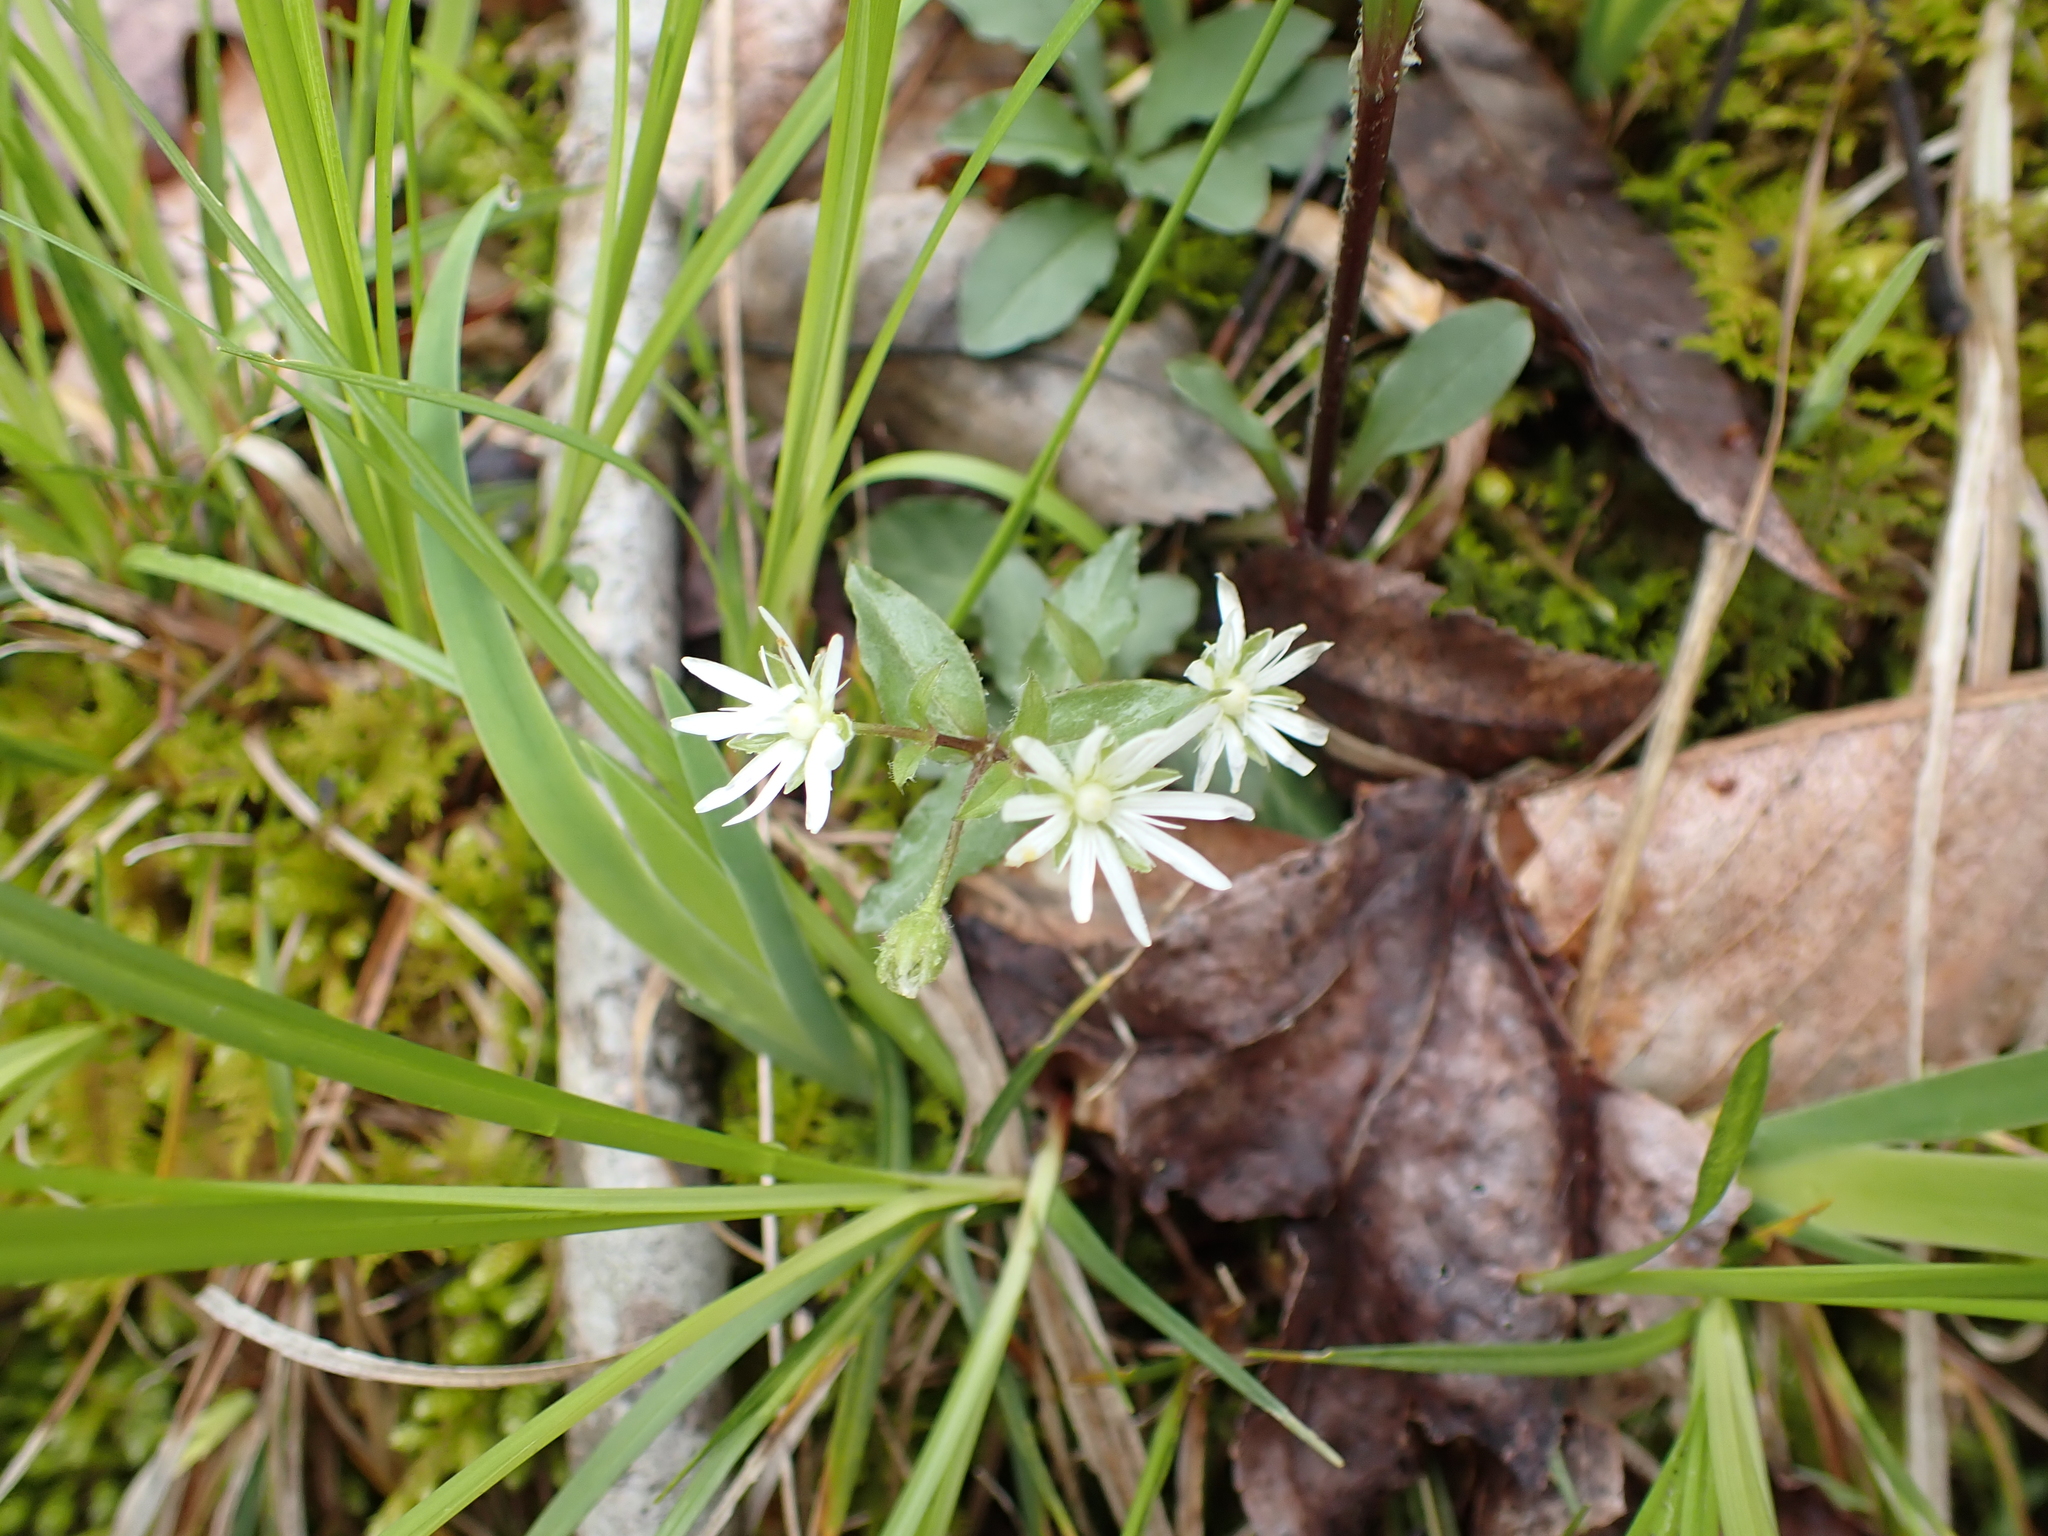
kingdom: Plantae
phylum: Tracheophyta
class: Magnoliopsida
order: Caryophyllales
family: Caryophyllaceae
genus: Stellaria
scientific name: Stellaria pubera
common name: Star chickweed
